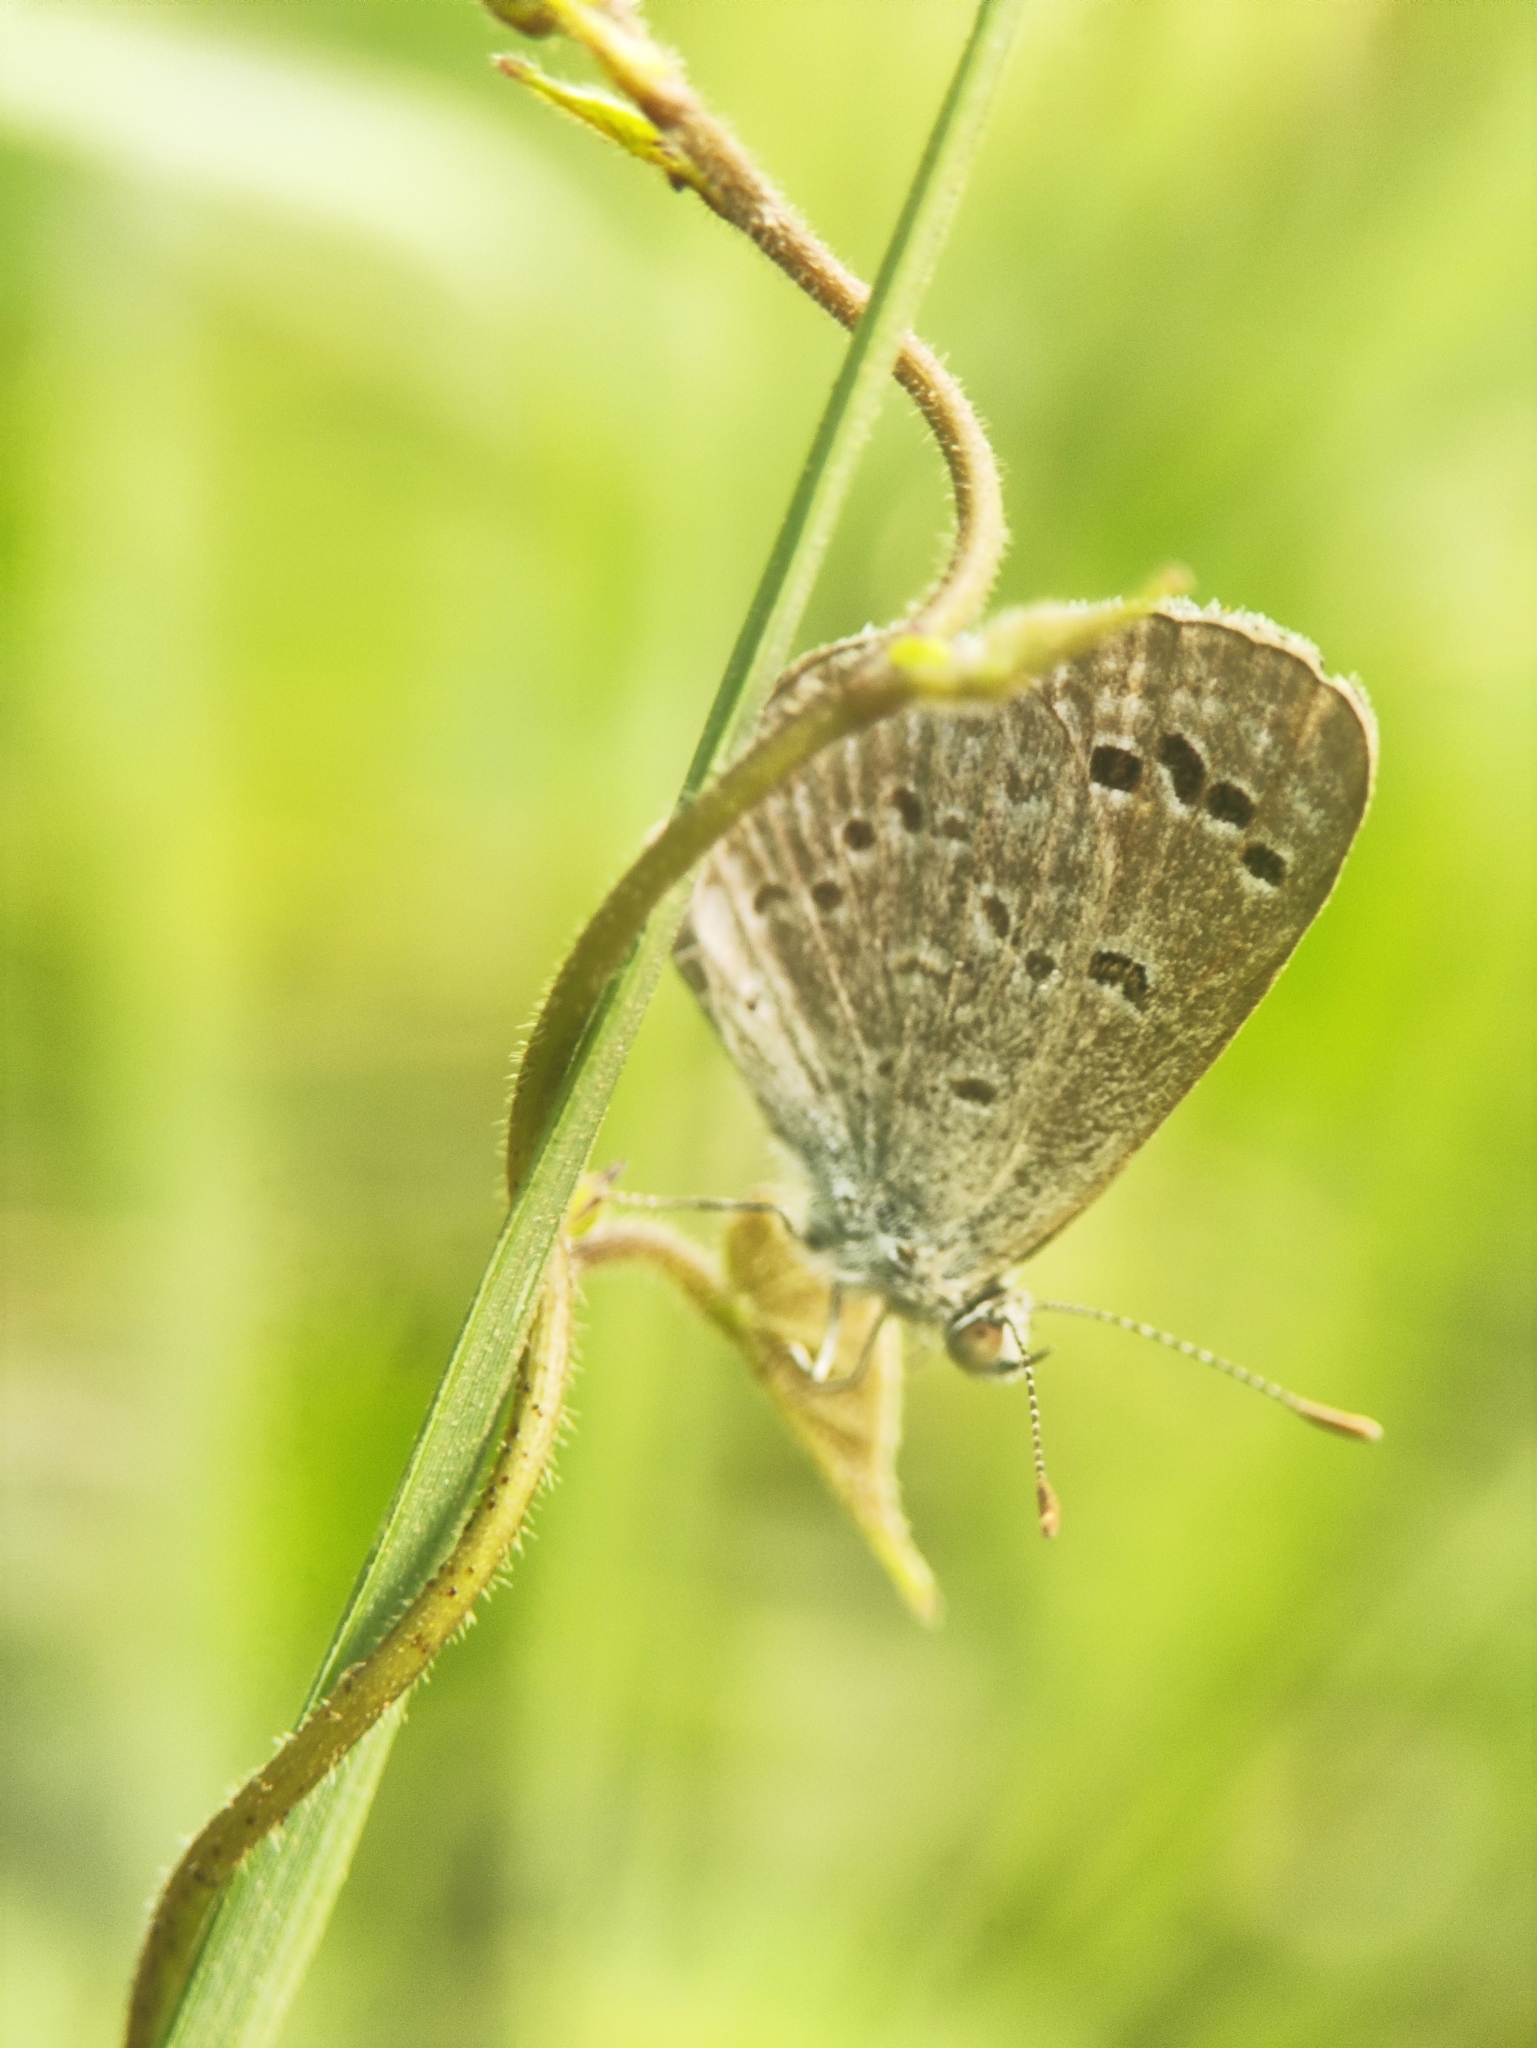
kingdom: Animalia
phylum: Arthropoda
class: Insecta
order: Lepidoptera
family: Lycaenidae
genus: Zizina
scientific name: Zizina otis
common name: Lesser grass blue
